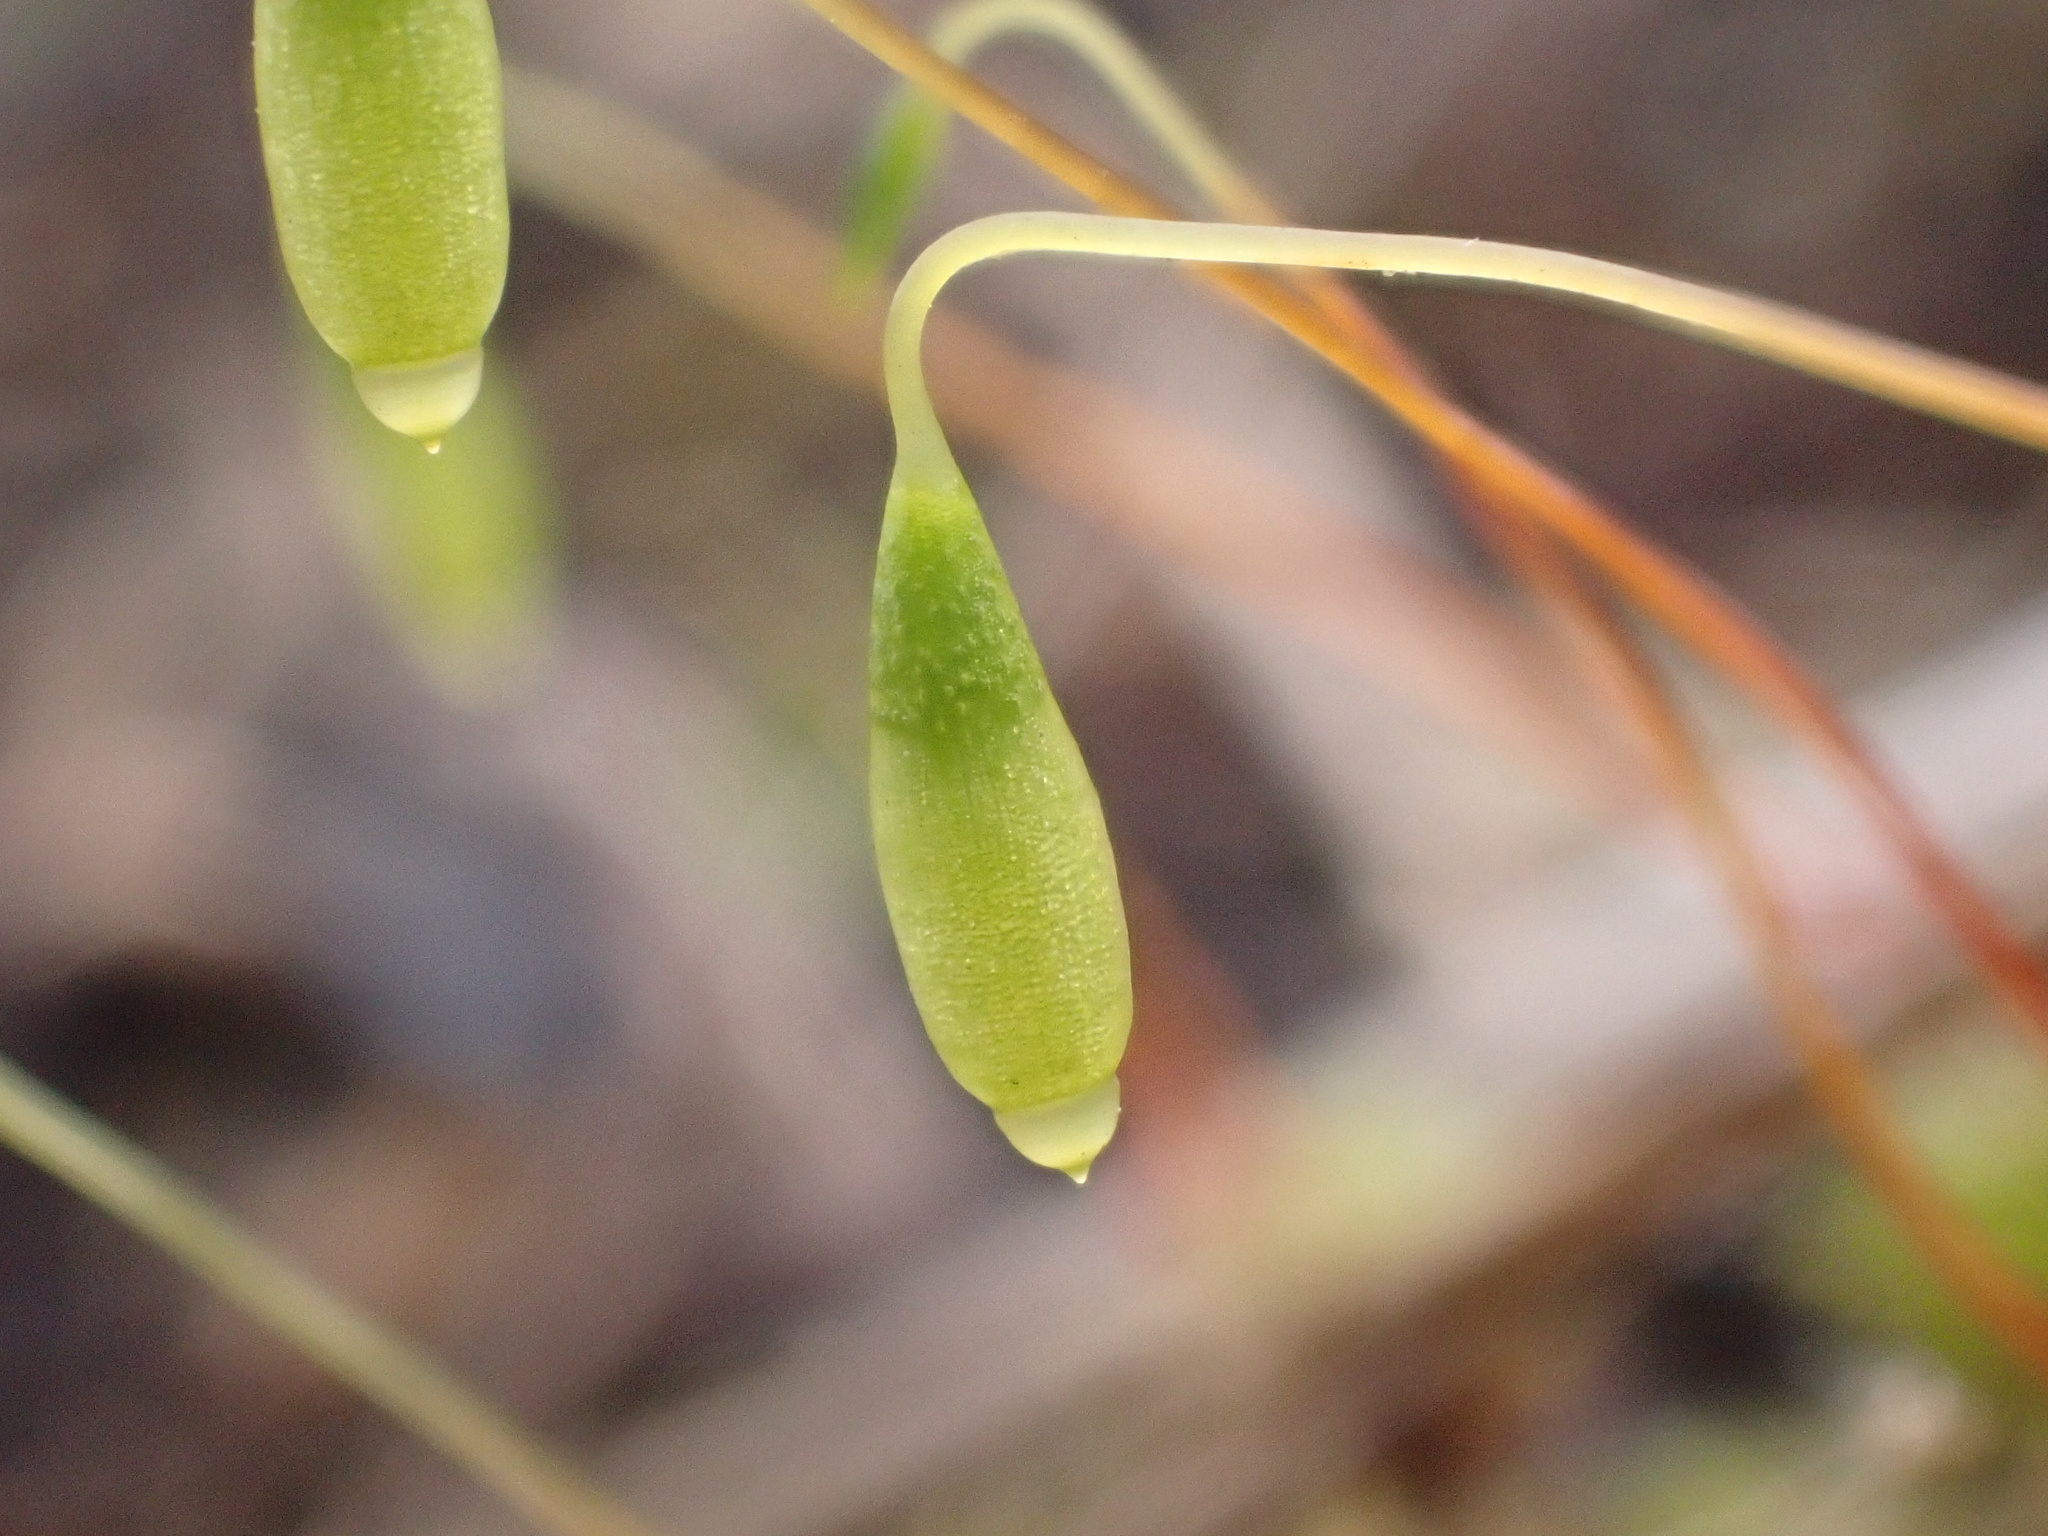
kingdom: Plantae
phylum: Bryophyta
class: Bryopsida
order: Bryales
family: Bryaceae
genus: Rosulabryum
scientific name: Rosulabryum capillare
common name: Capillary thread-moss
